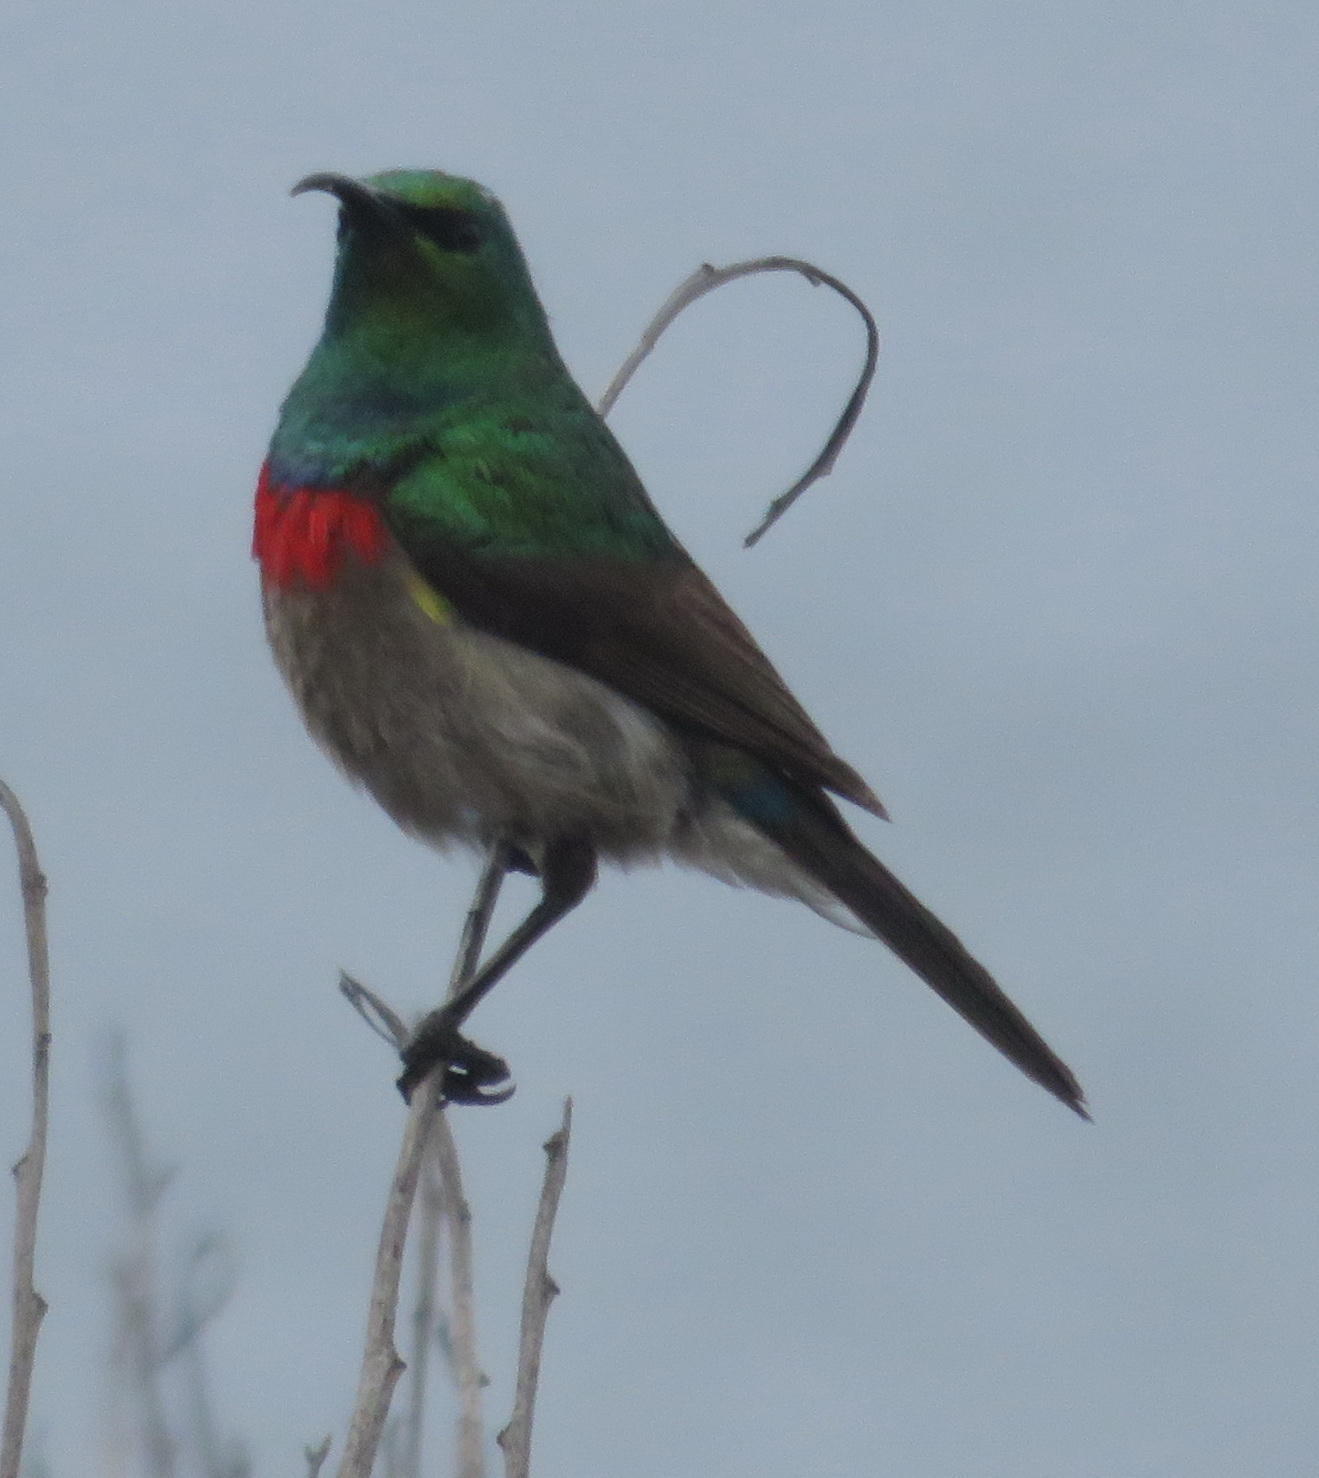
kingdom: Animalia
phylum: Chordata
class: Aves
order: Passeriformes
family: Nectariniidae
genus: Cinnyris
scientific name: Cinnyris chalybeus
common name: Southern double-collared sunbird
